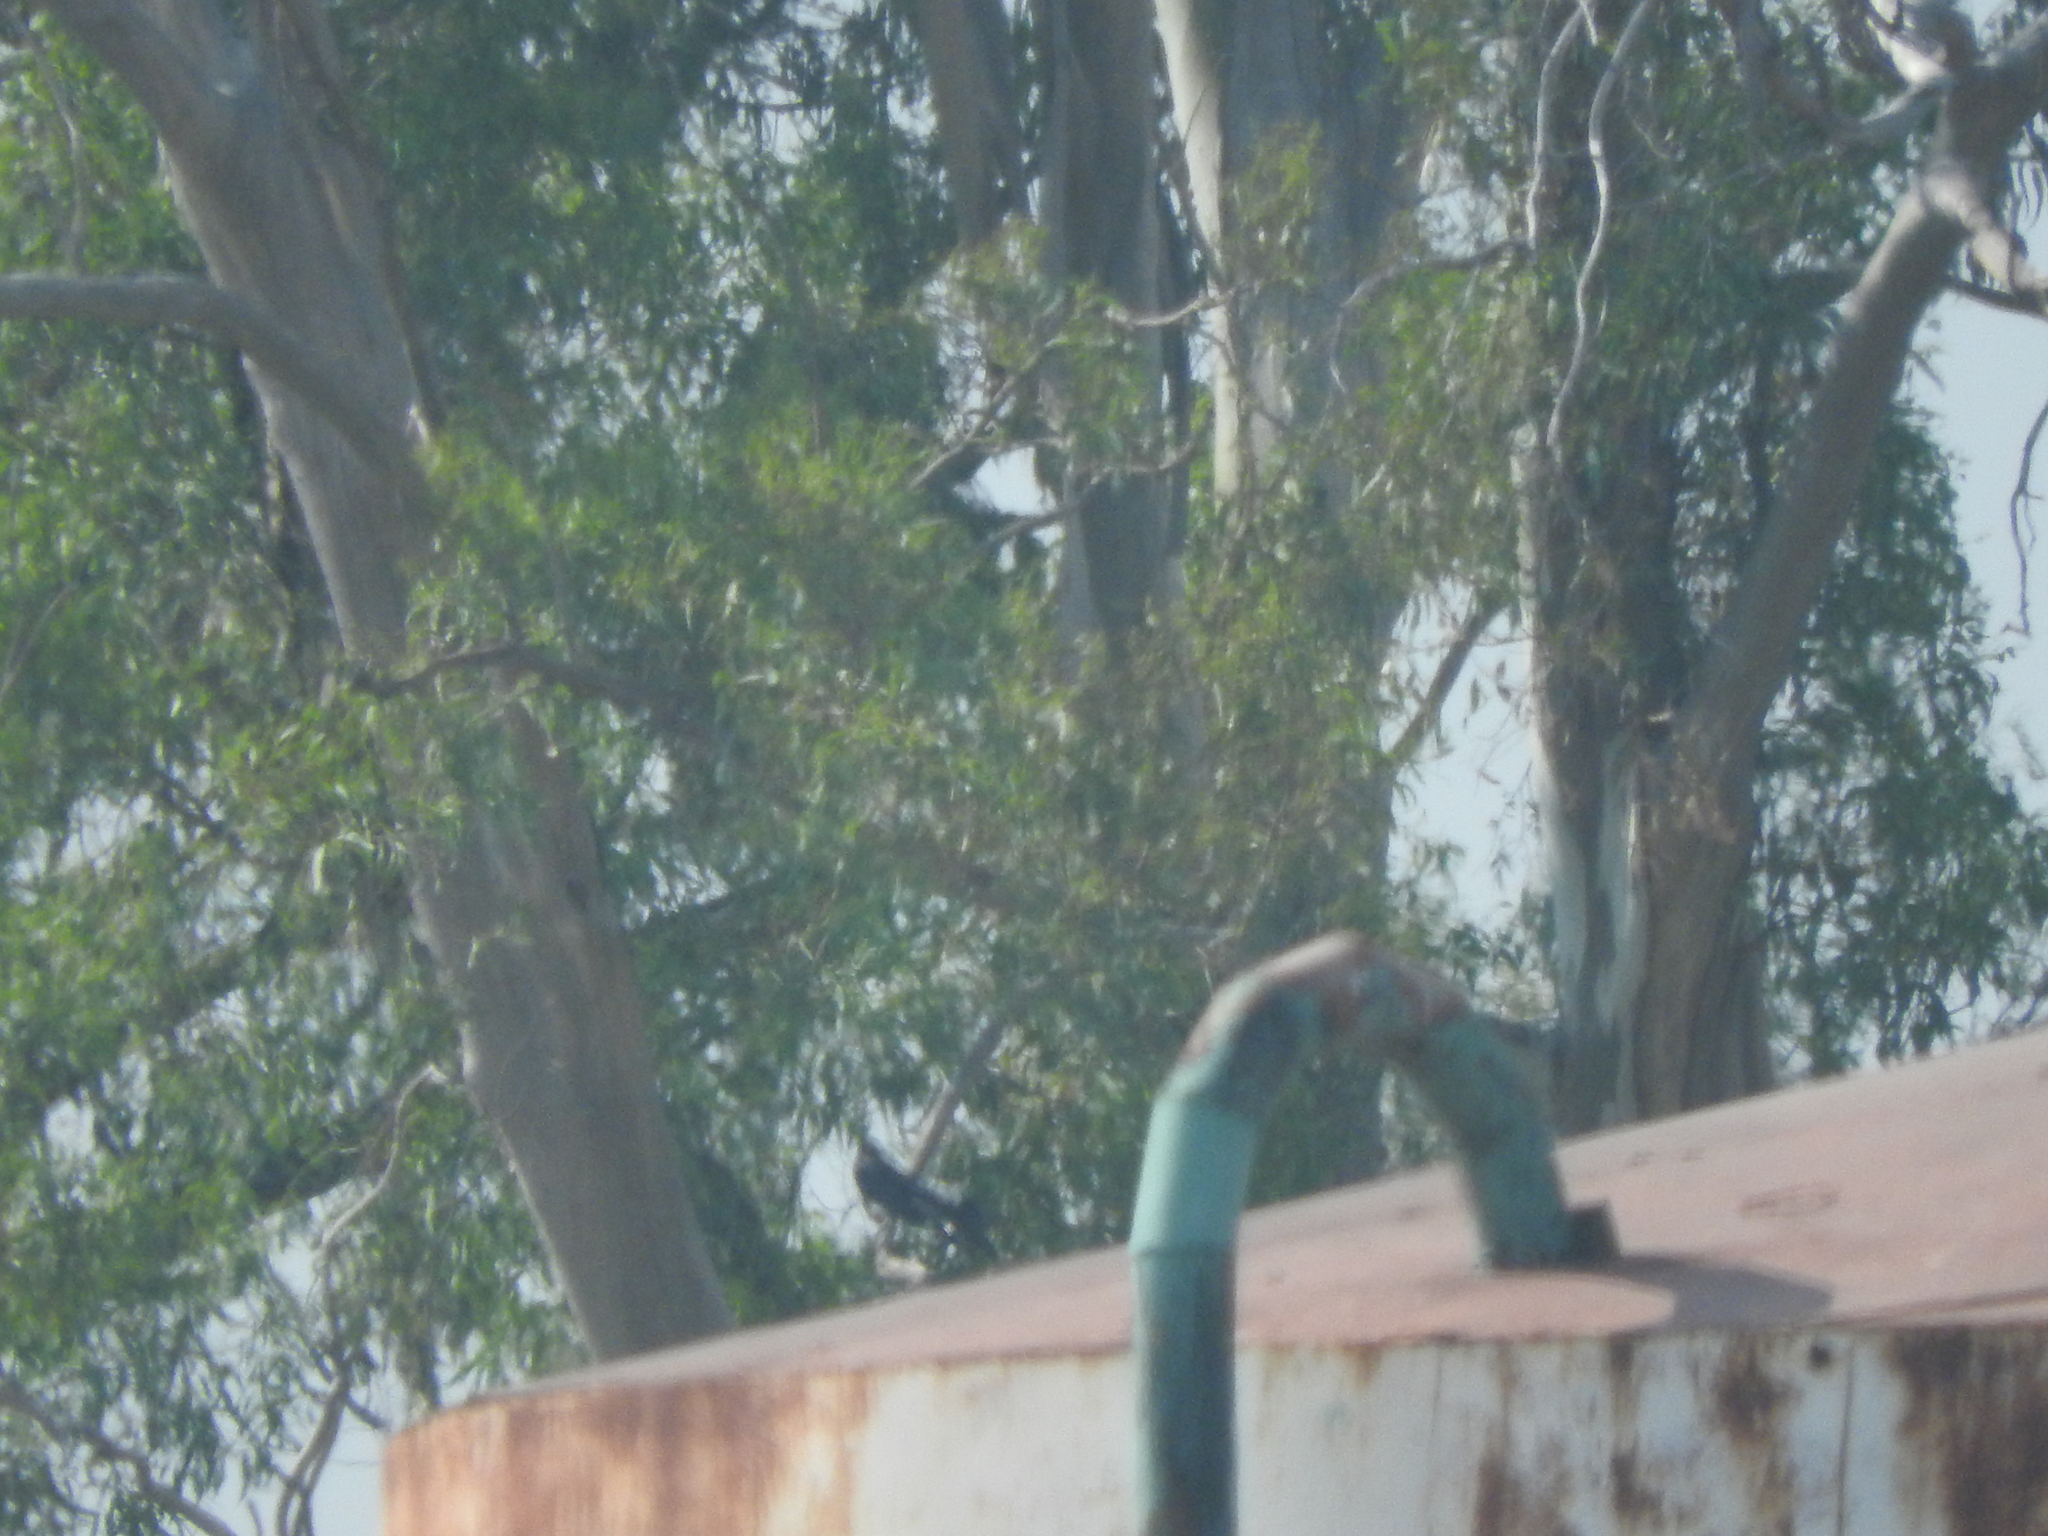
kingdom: Animalia
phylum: Chordata
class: Aves
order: Passeriformes
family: Icteridae
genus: Quiscalus
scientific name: Quiscalus mexicanus
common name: Great-tailed grackle
